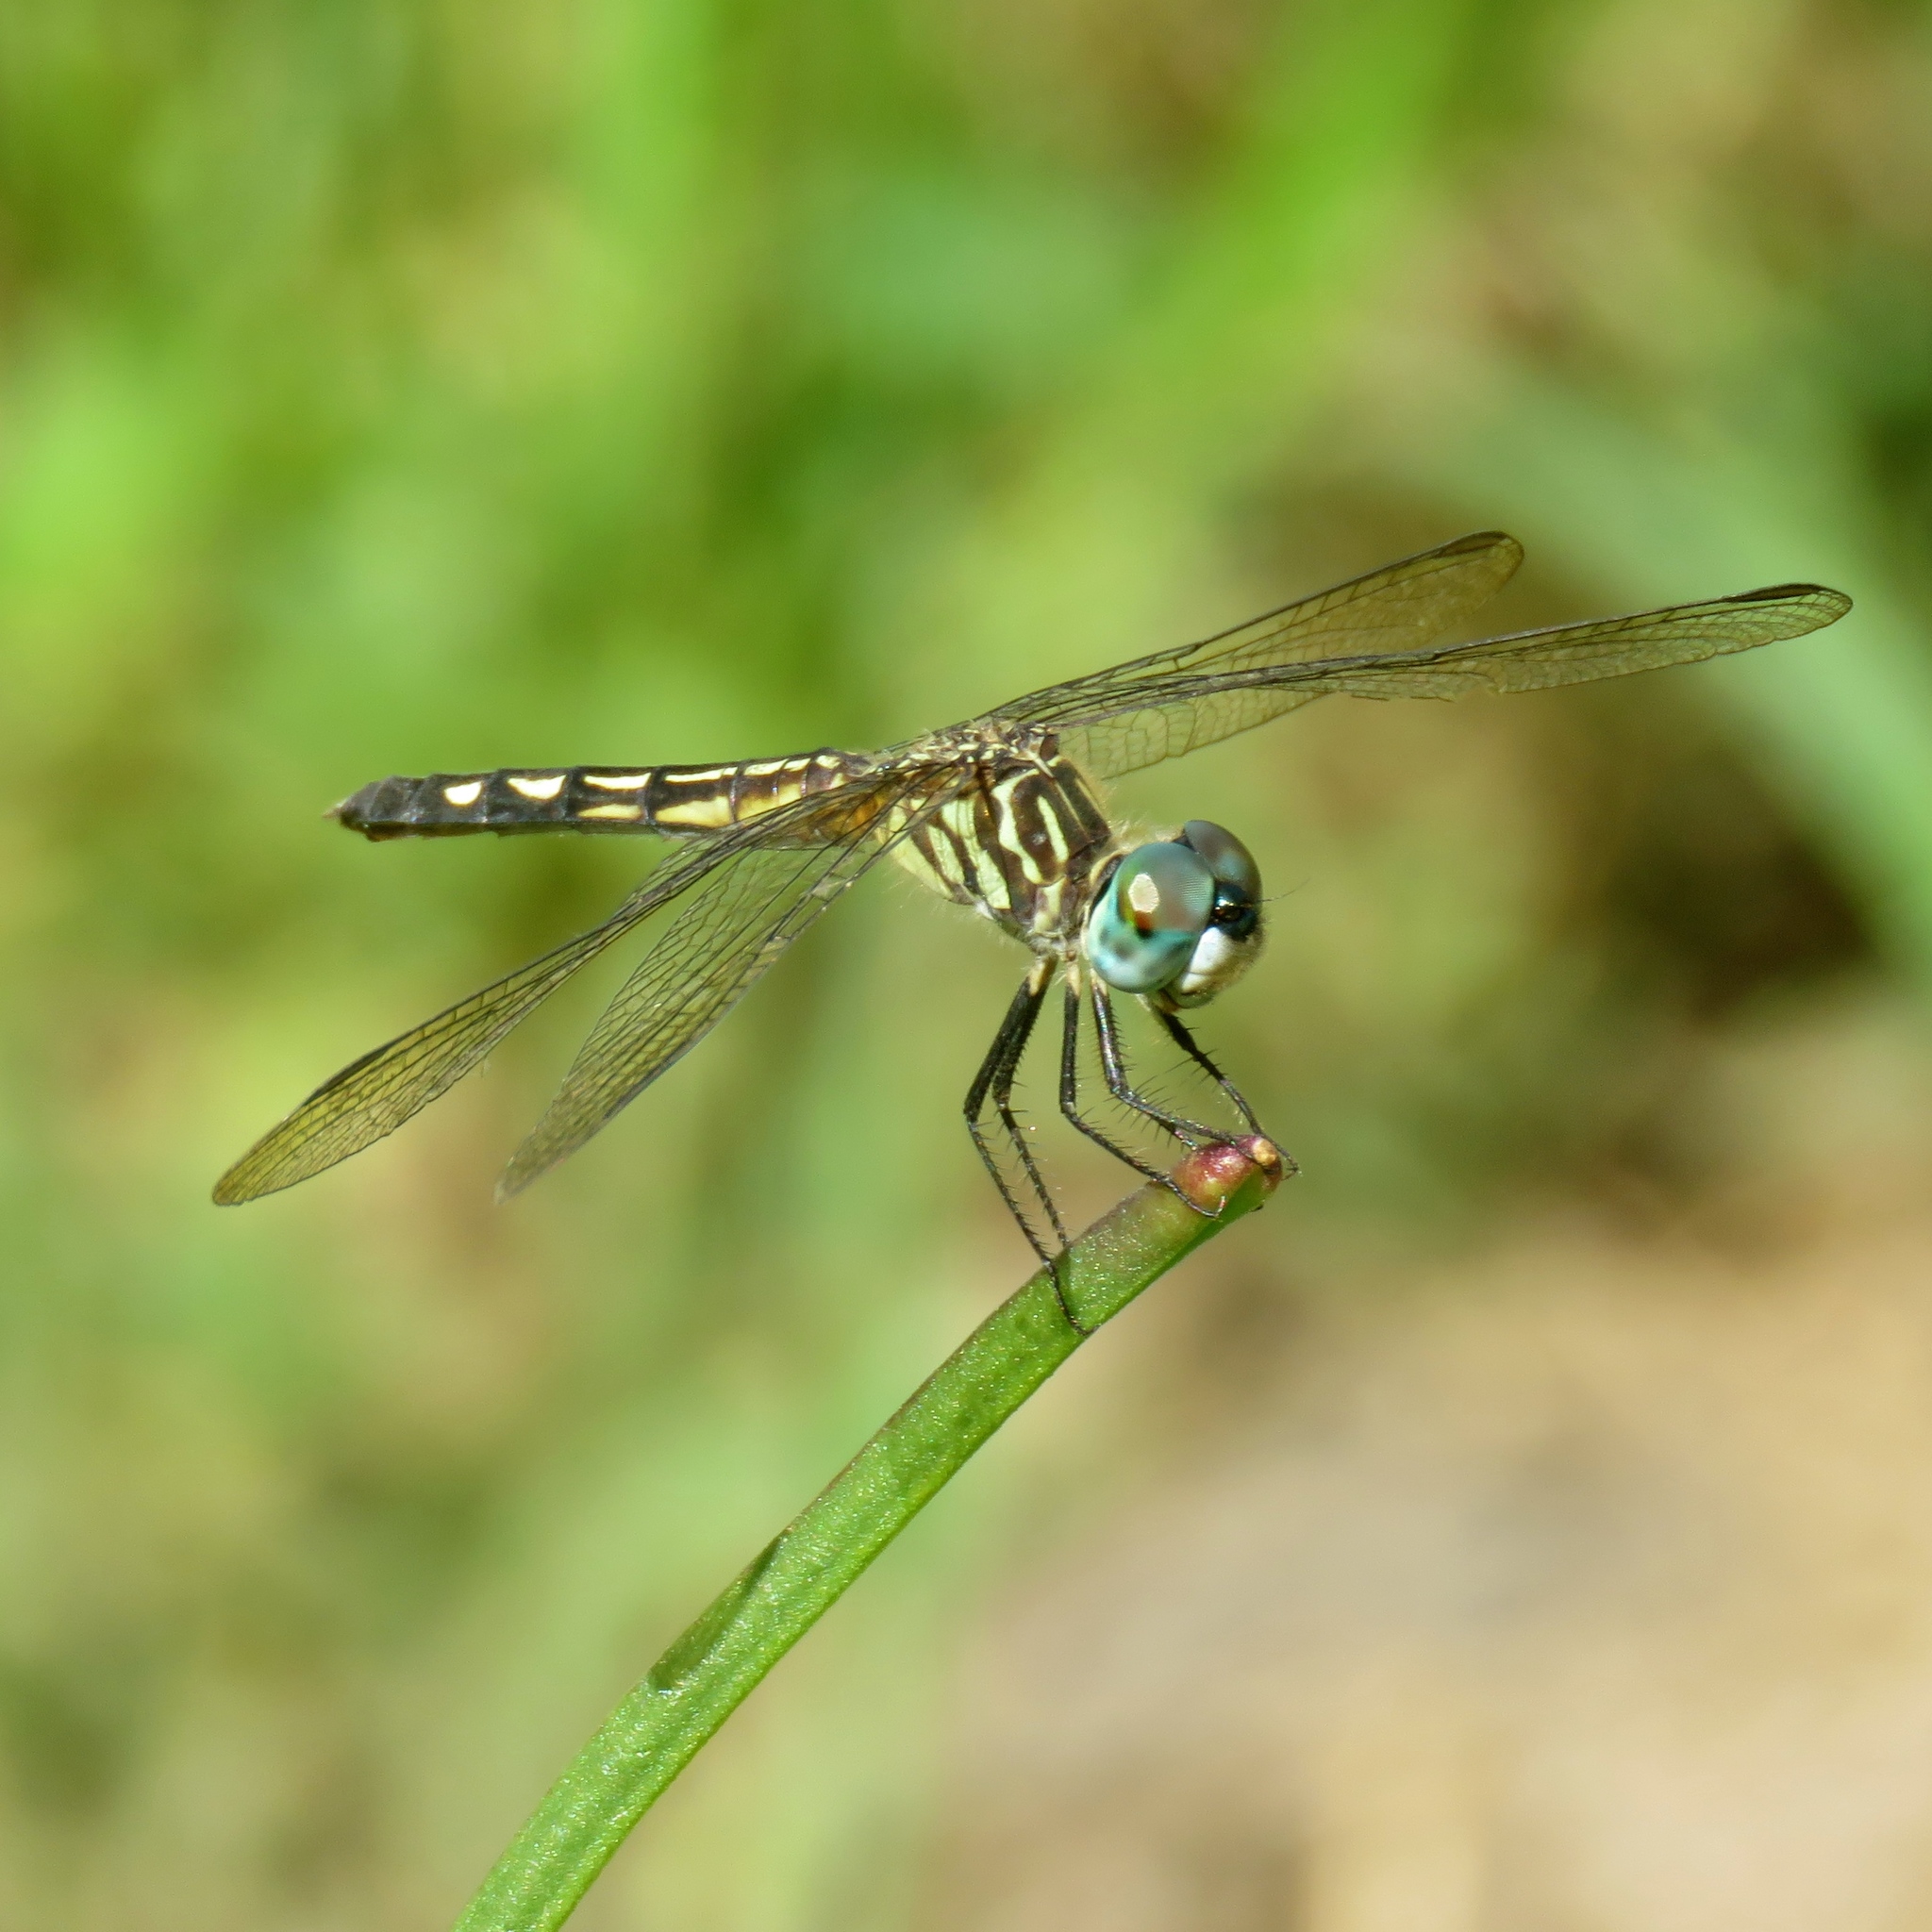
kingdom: Animalia
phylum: Arthropoda
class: Insecta
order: Odonata
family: Libellulidae
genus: Pachydiplax
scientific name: Pachydiplax longipennis
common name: Blue dasher
